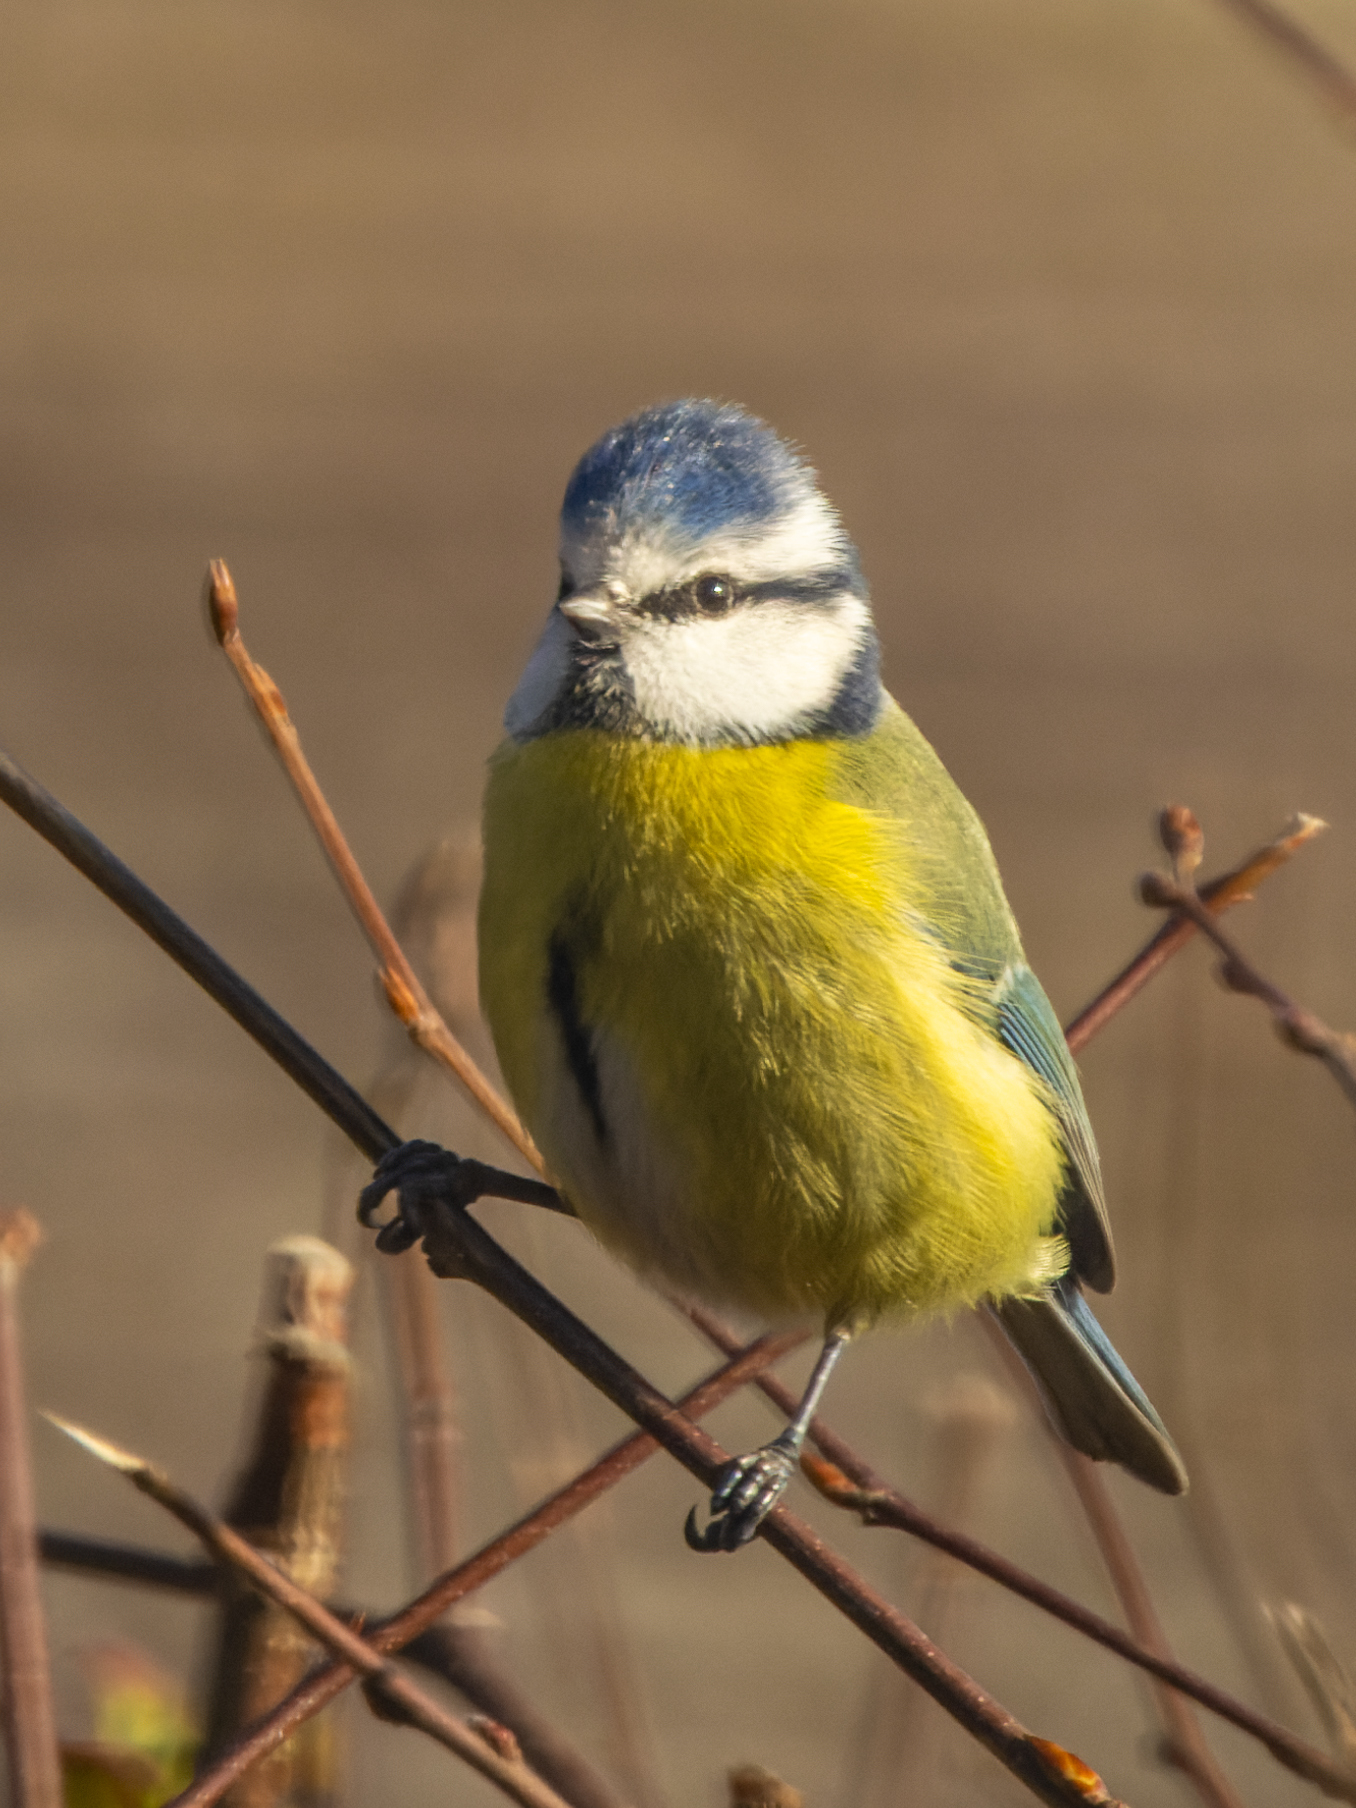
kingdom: Animalia
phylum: Chordata
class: Aves
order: Passeriformes
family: Paridae
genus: Cyanistes
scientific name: Cyanistes caeruleus
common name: Eurasian blue tit
